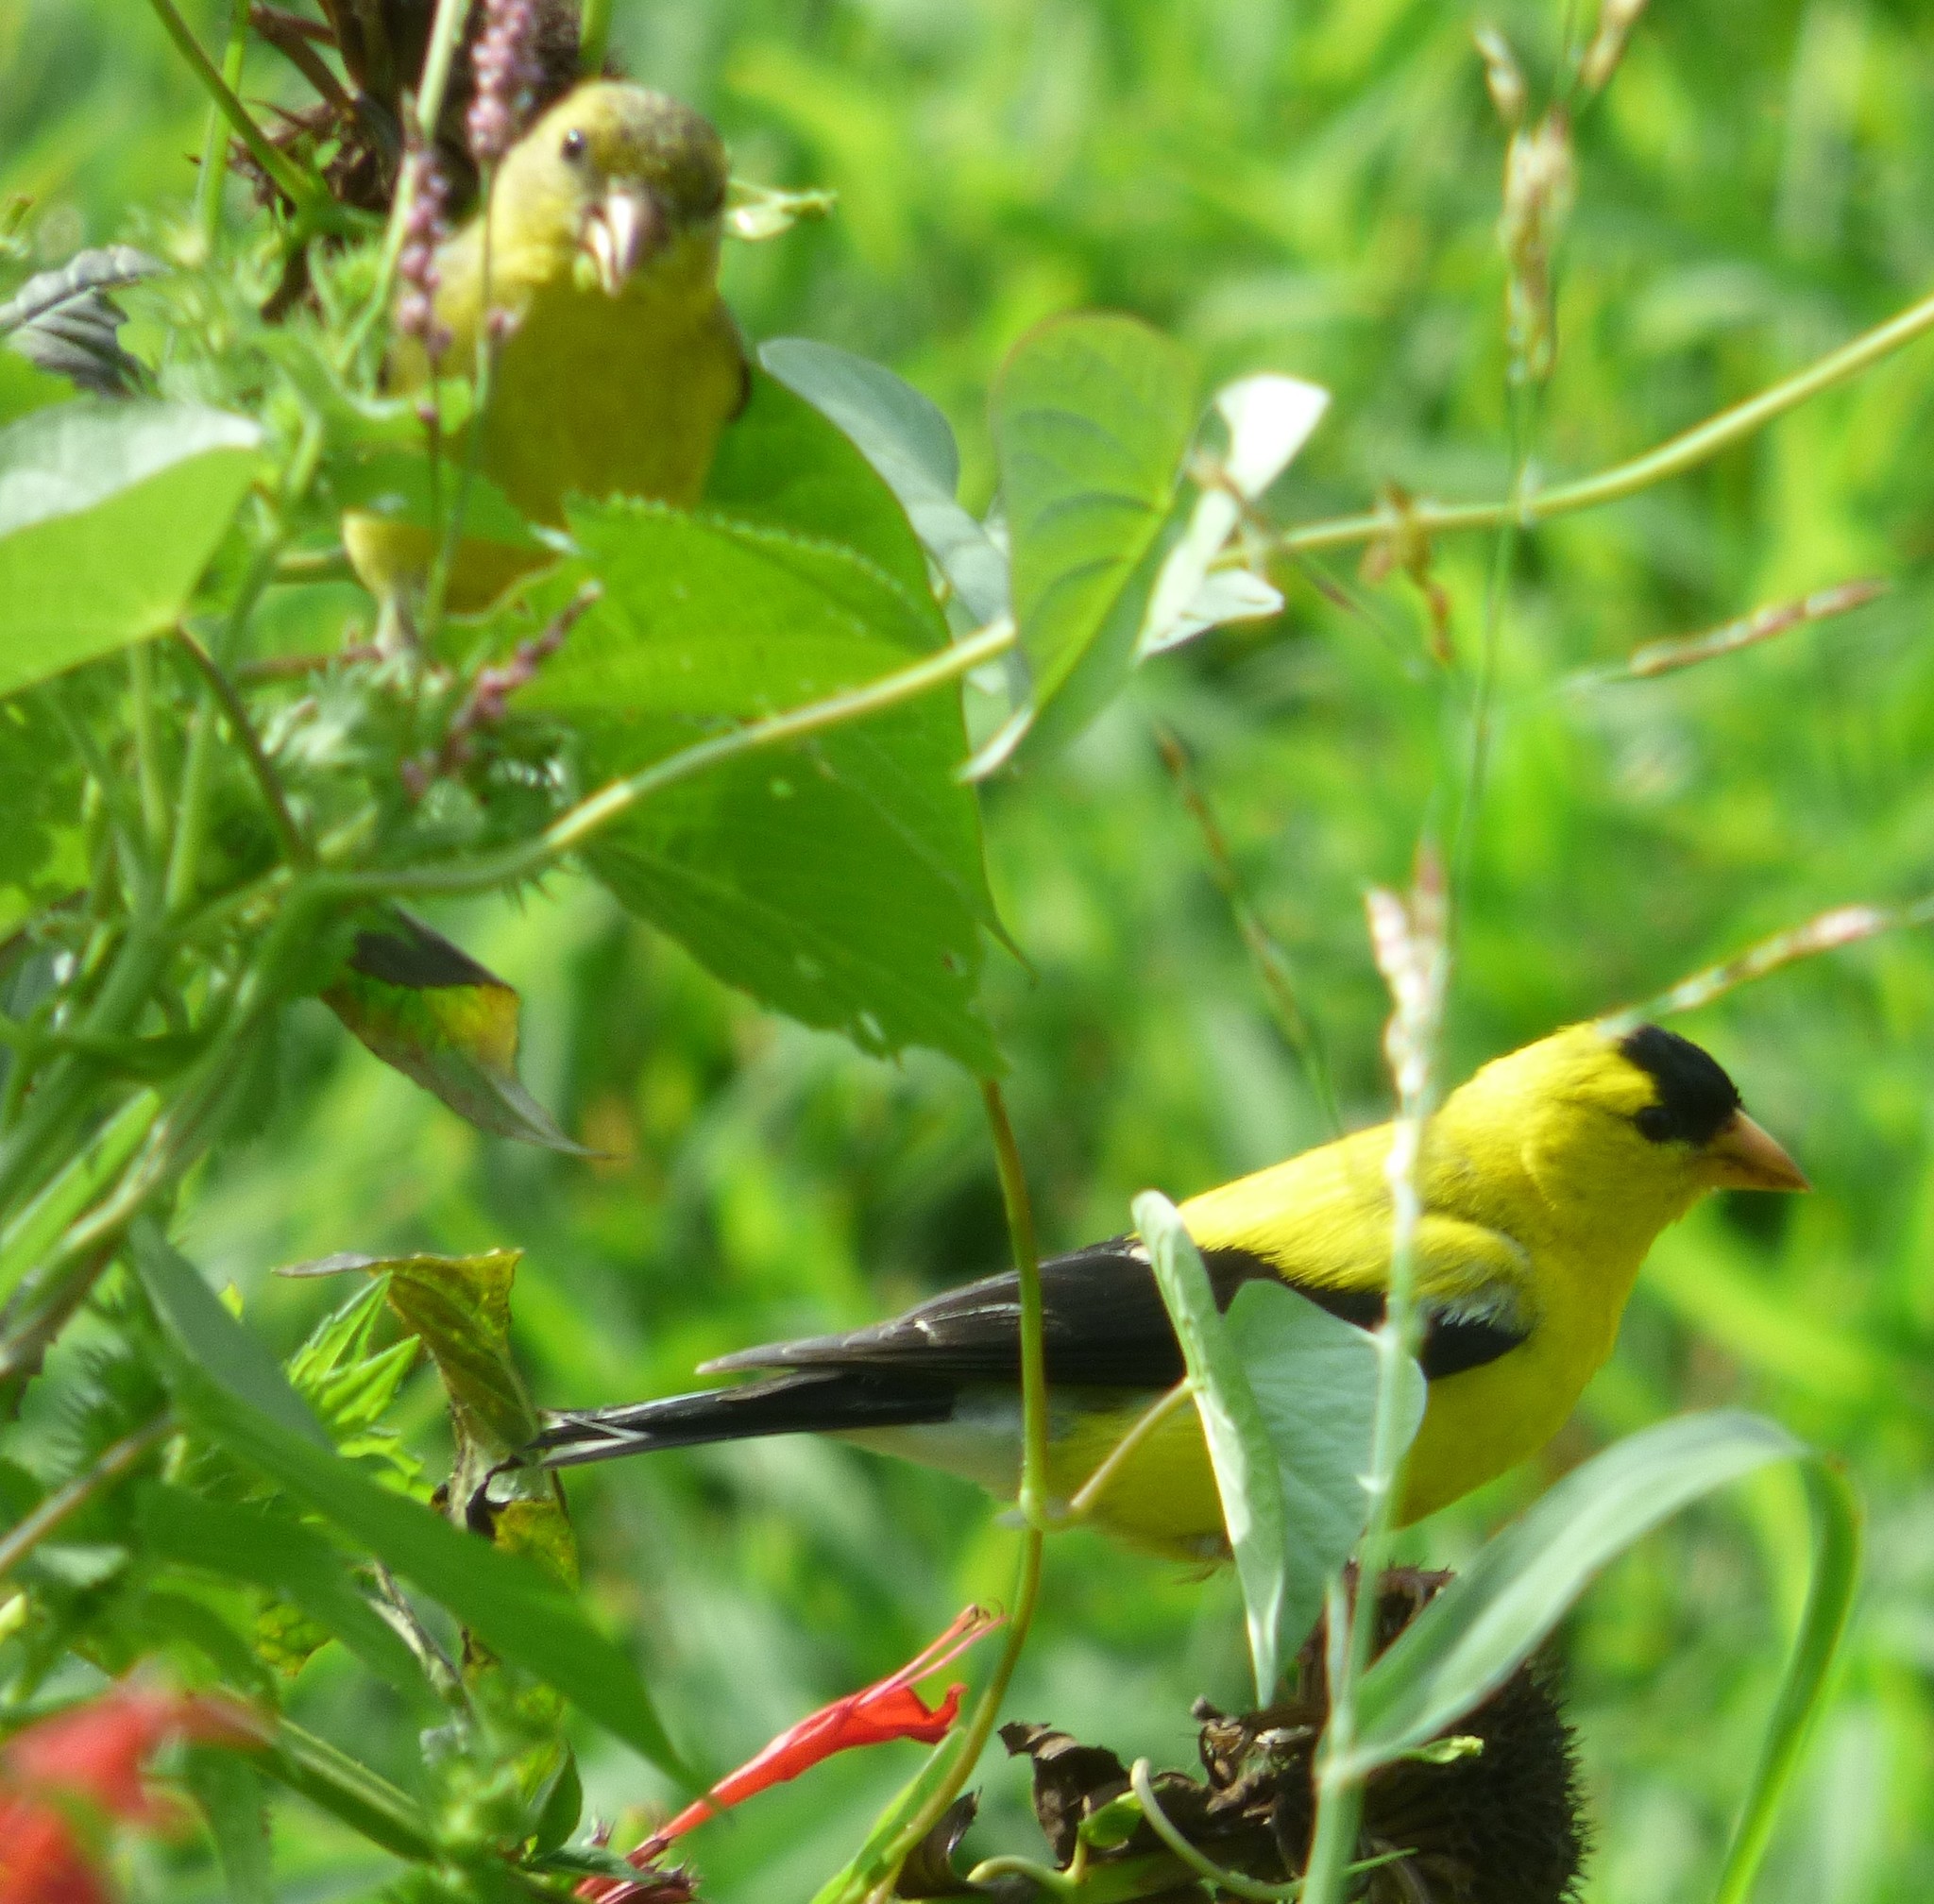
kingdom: Animalia
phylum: Chordata
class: Aves
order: Passeriformes
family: Fringillidae
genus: Spinus
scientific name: Spinus tristis
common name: American goldfinch
